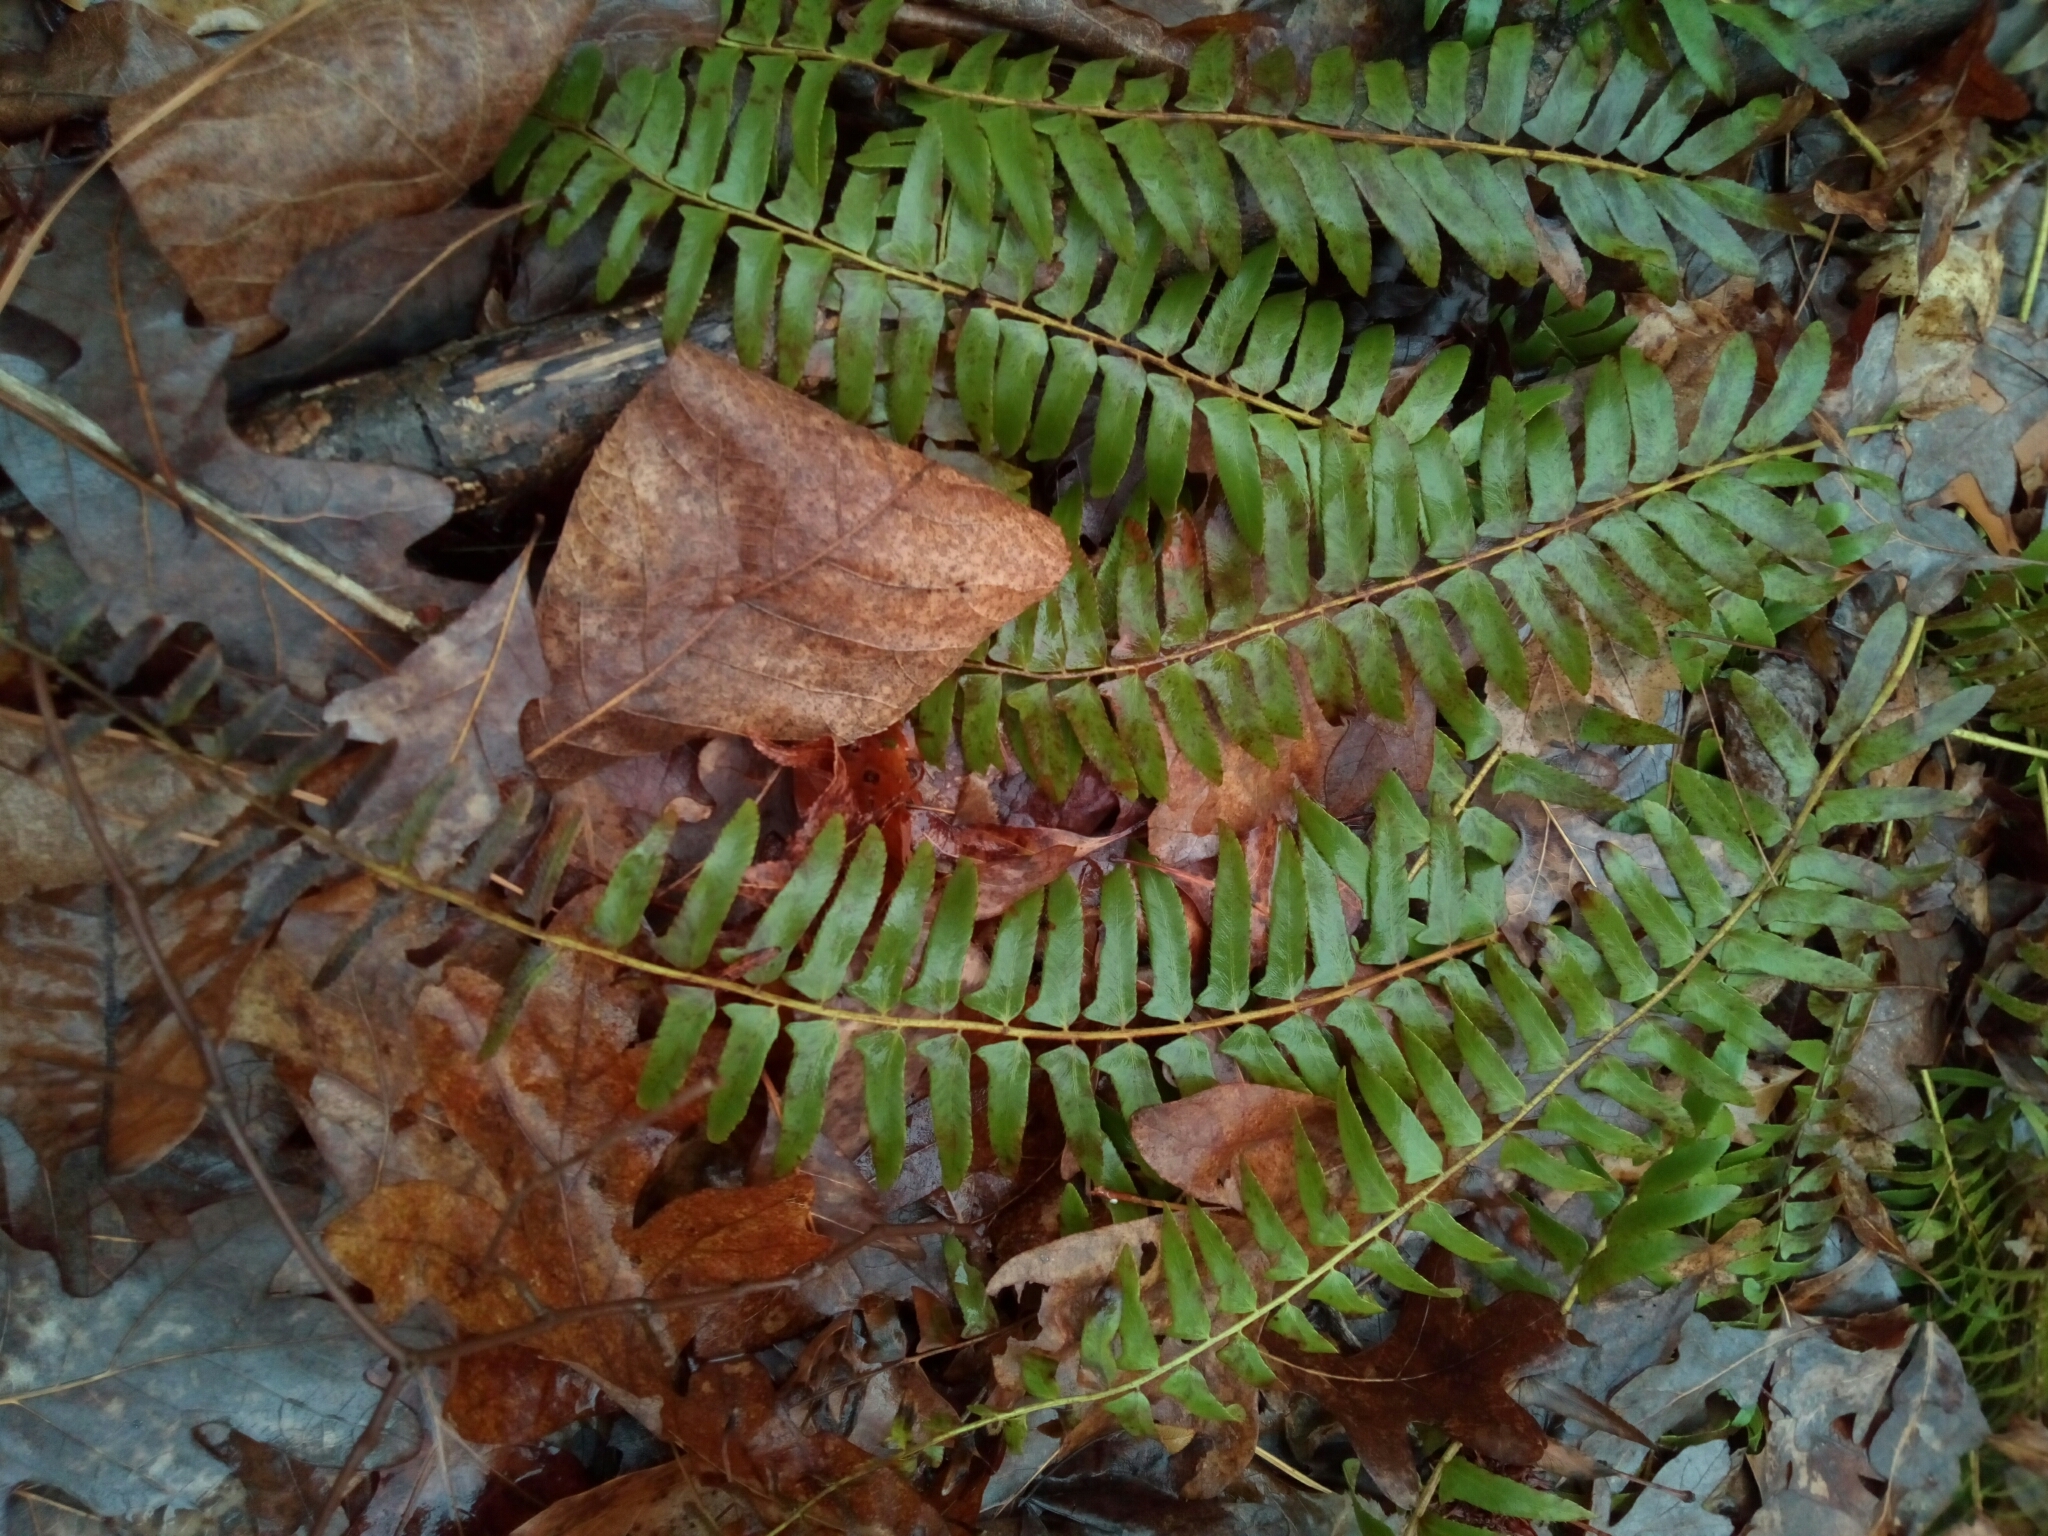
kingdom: Plantae
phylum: Tracheophyta
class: Polypodiopsida
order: Polypodiales
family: Dryopteridaceae
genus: Polystichum
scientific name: Polystichum acrostichoides
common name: Christmas fern
